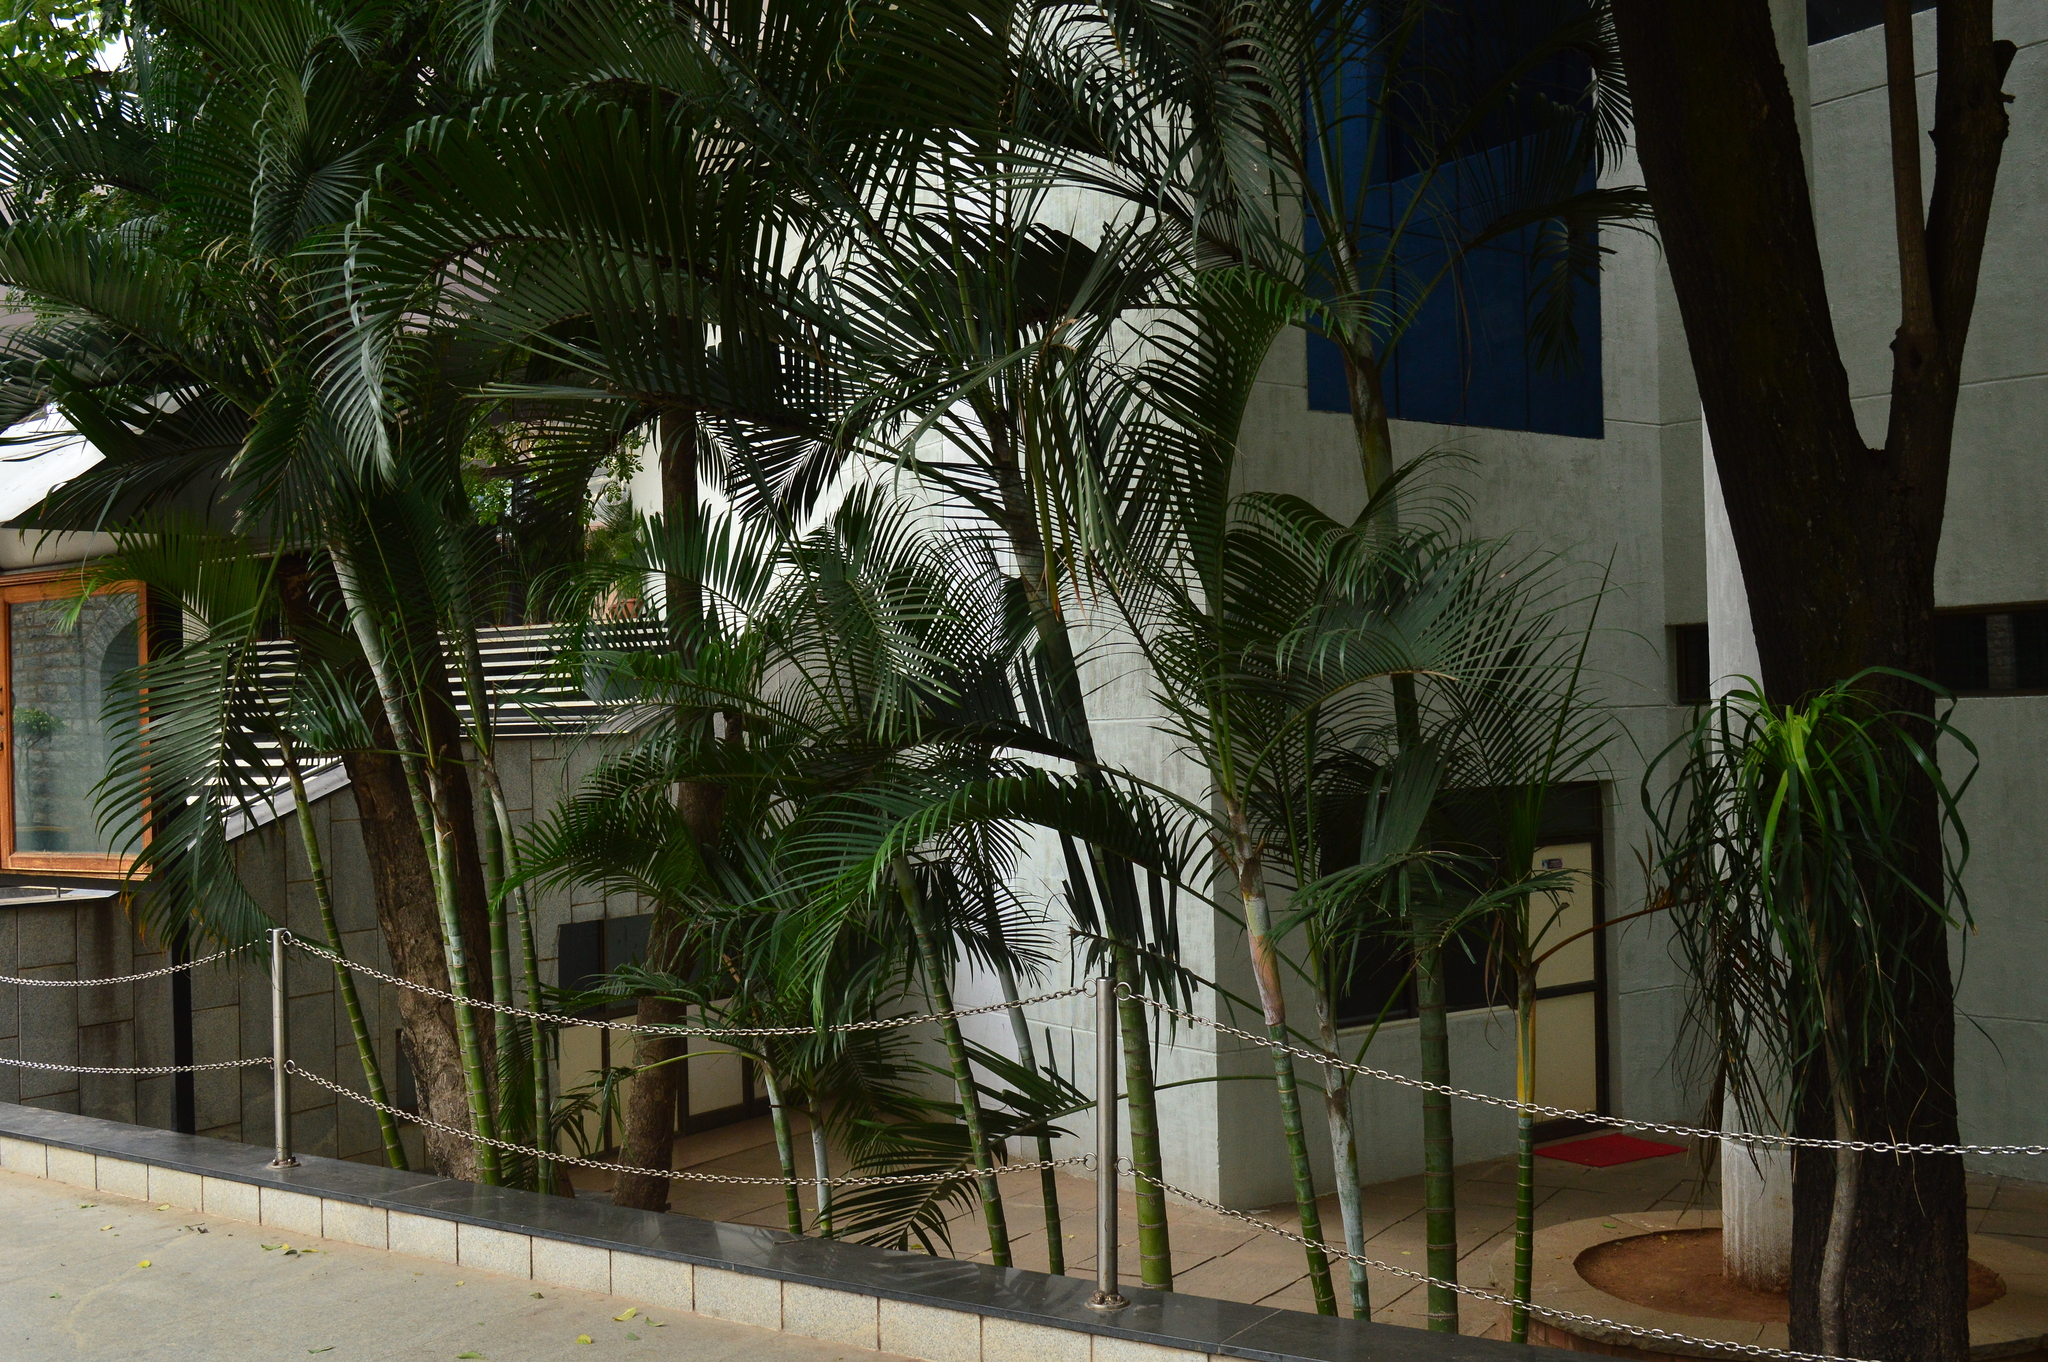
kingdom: Plantae
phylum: Tracheophyta
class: Liliopsida
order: Arecales
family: Arecaceae
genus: Dypsis
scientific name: Dypsis lutescens
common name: Yellow butterfly palm
